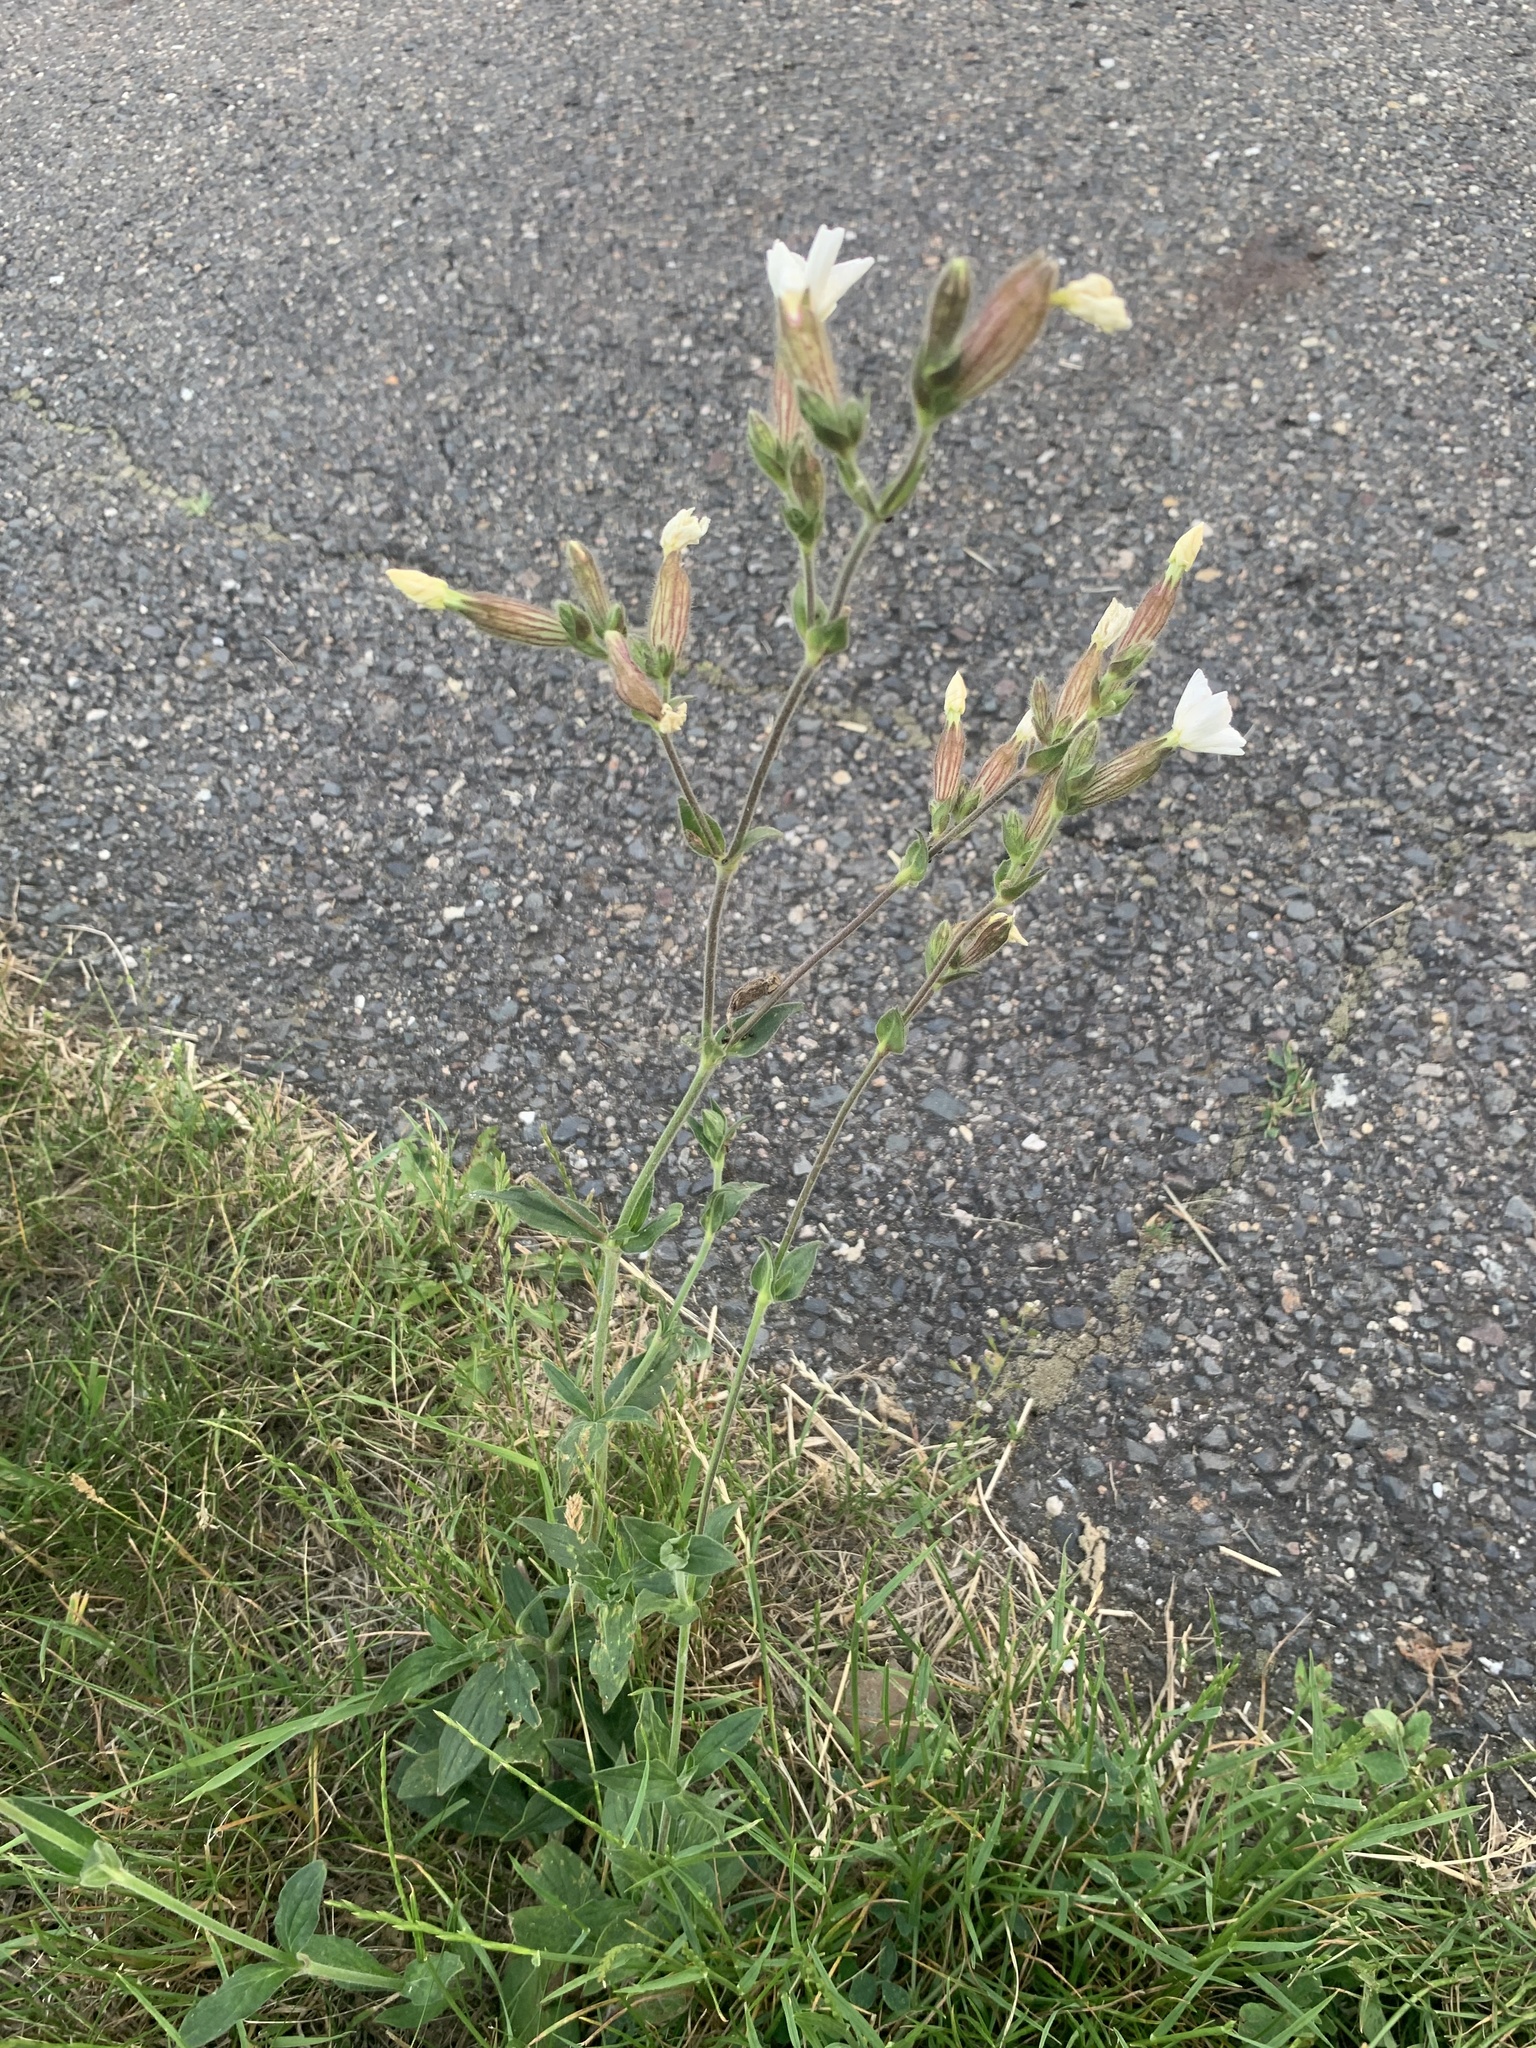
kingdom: Plantae
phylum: Tracheophyta
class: Magnoliopsida
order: Caryophyllales
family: Caryophyllaceae
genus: Silene
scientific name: Silene latifolia
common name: White campion
